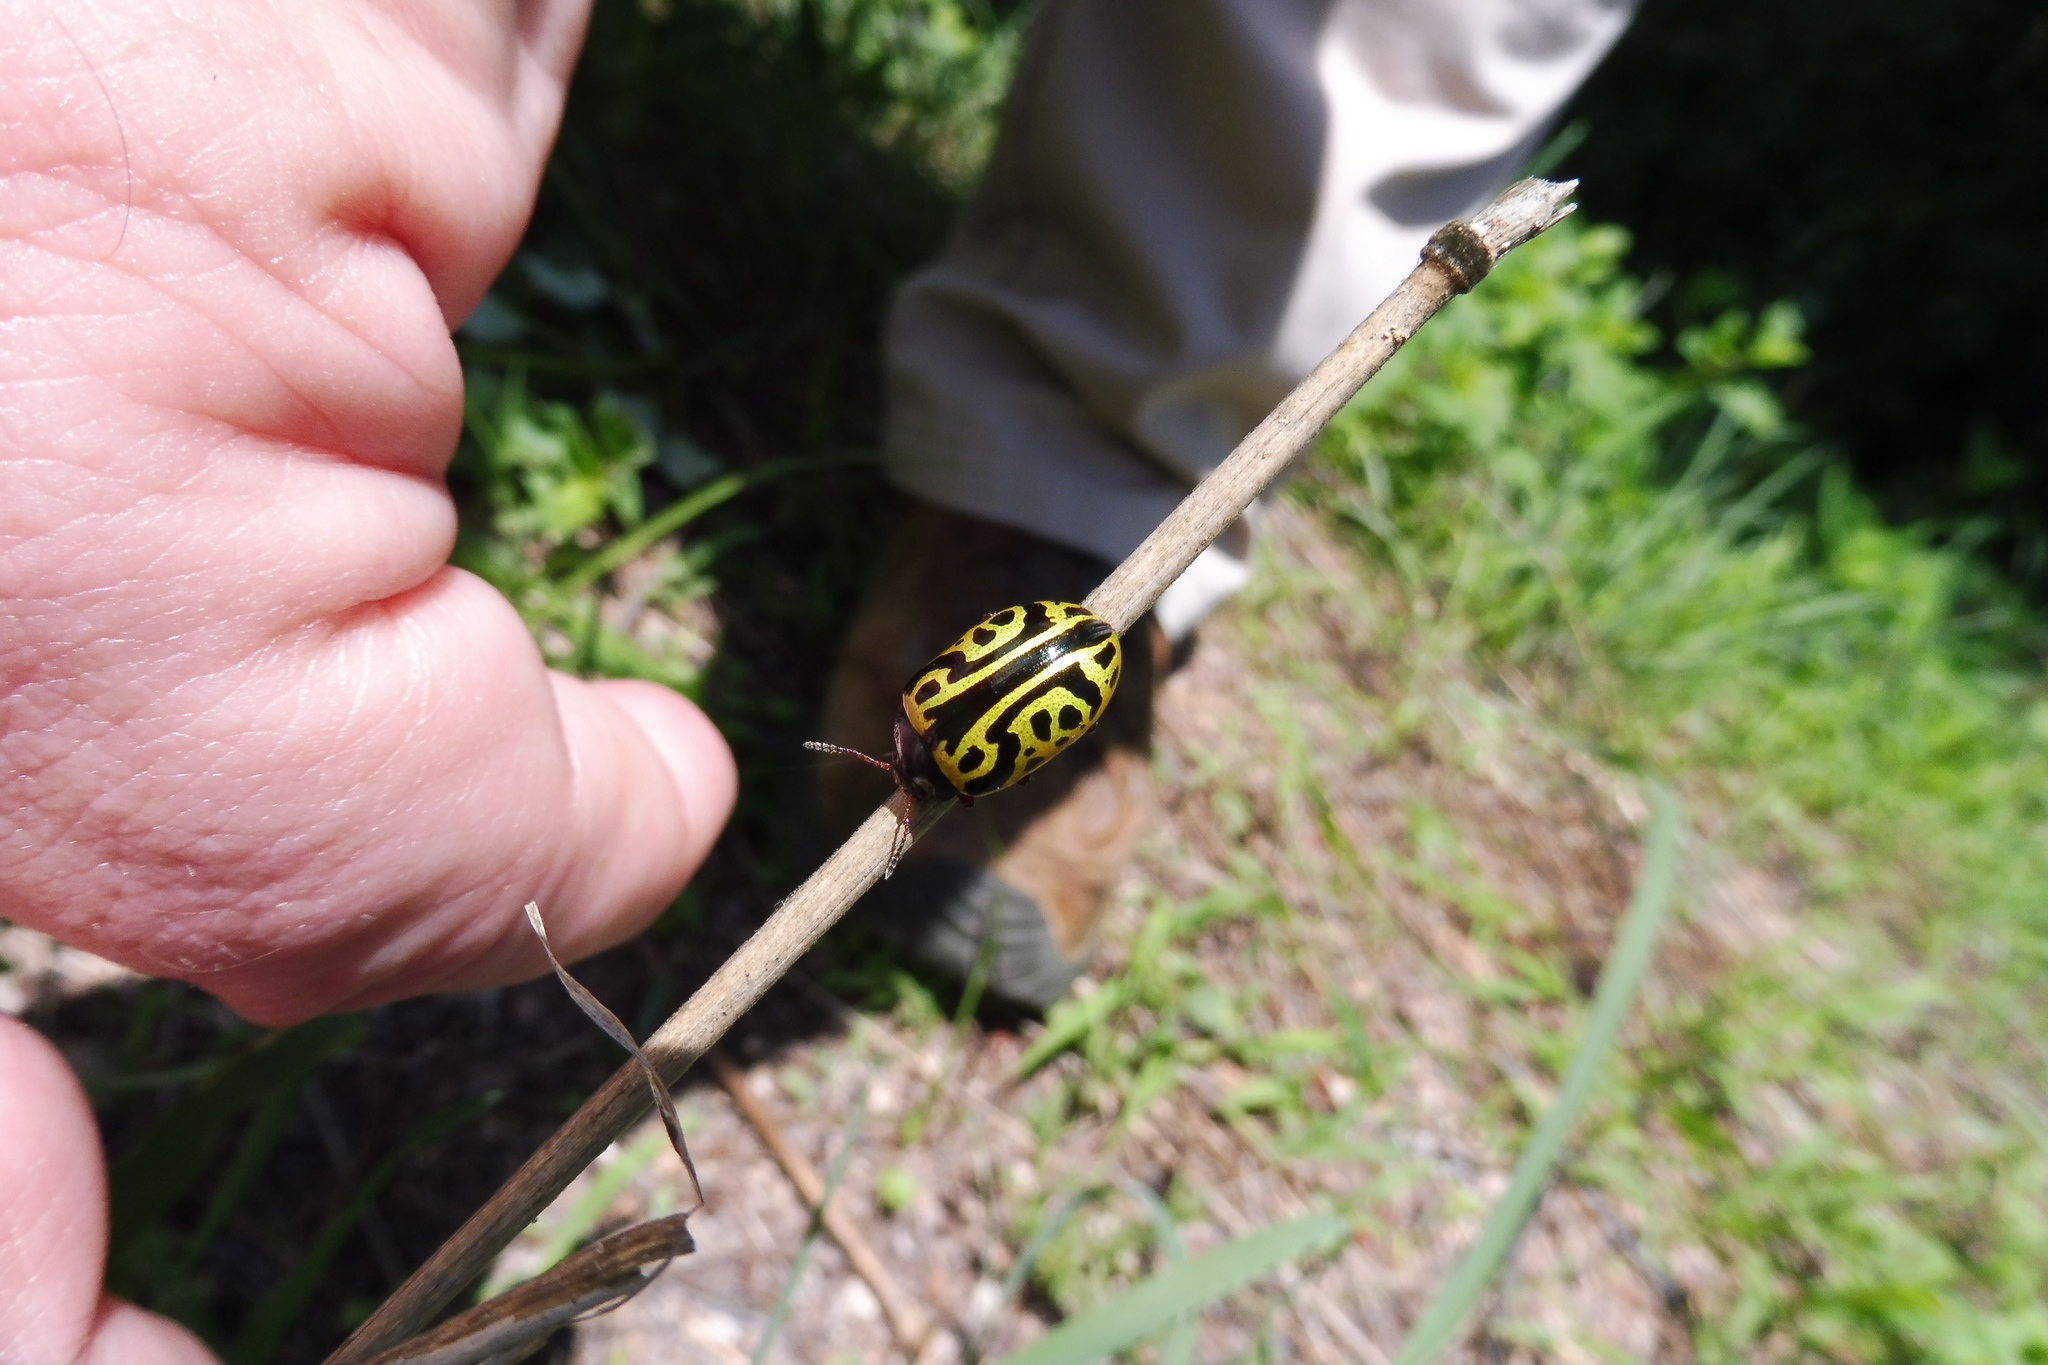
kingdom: Animalia
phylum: Arthropoda
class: Insecta
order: Coleoptera
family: Chrysomelidae
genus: Calligrapha
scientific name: Calligrapha serpentina
